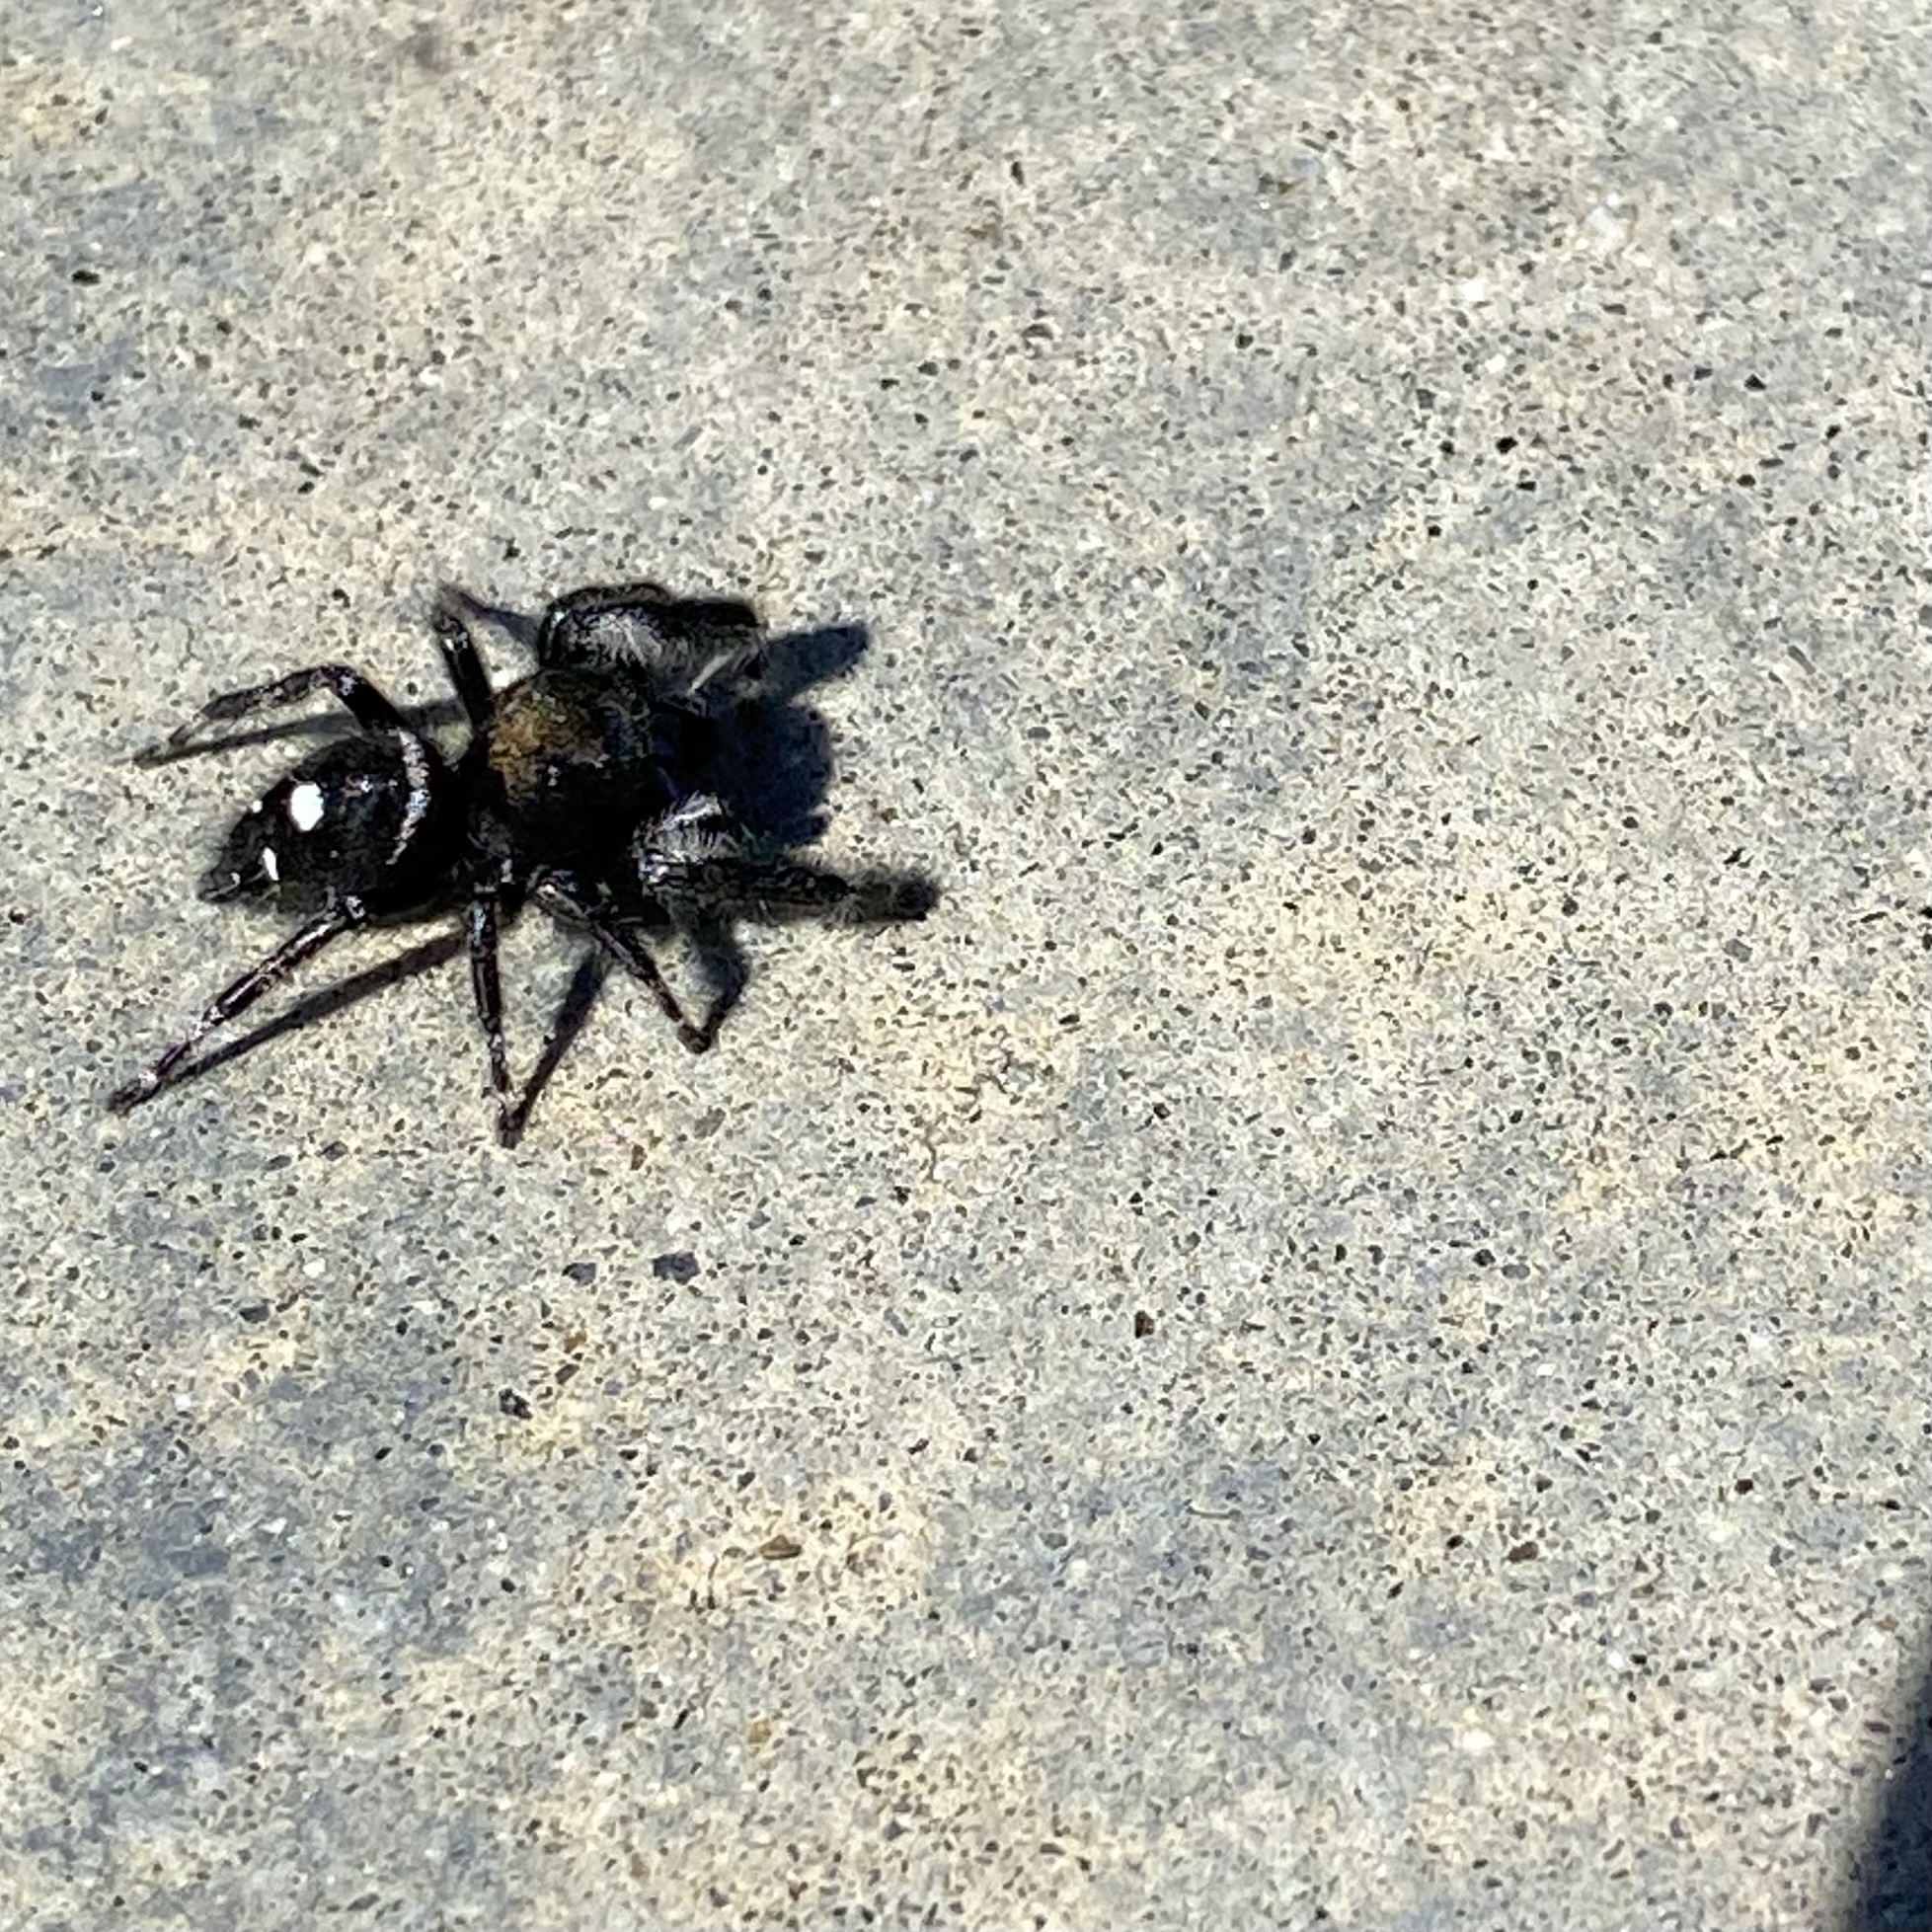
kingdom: Animalia
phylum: Arthropoda
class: Arachnida
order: Araneae
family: Salticidae
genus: Phidippus
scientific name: Phidippus audax
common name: Bold jumper
